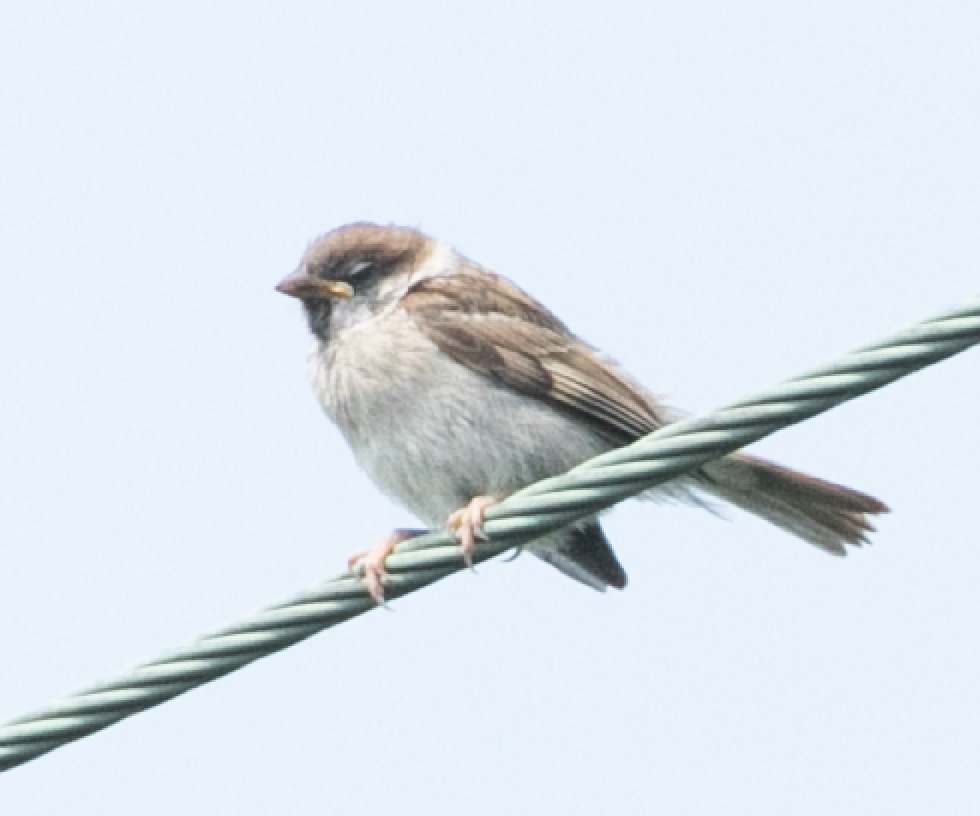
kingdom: Animalia
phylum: Chordata
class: Aves
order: Passeriformes
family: Passeridae
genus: Passer
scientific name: Passer montanus
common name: Eurasian tree sparrow
